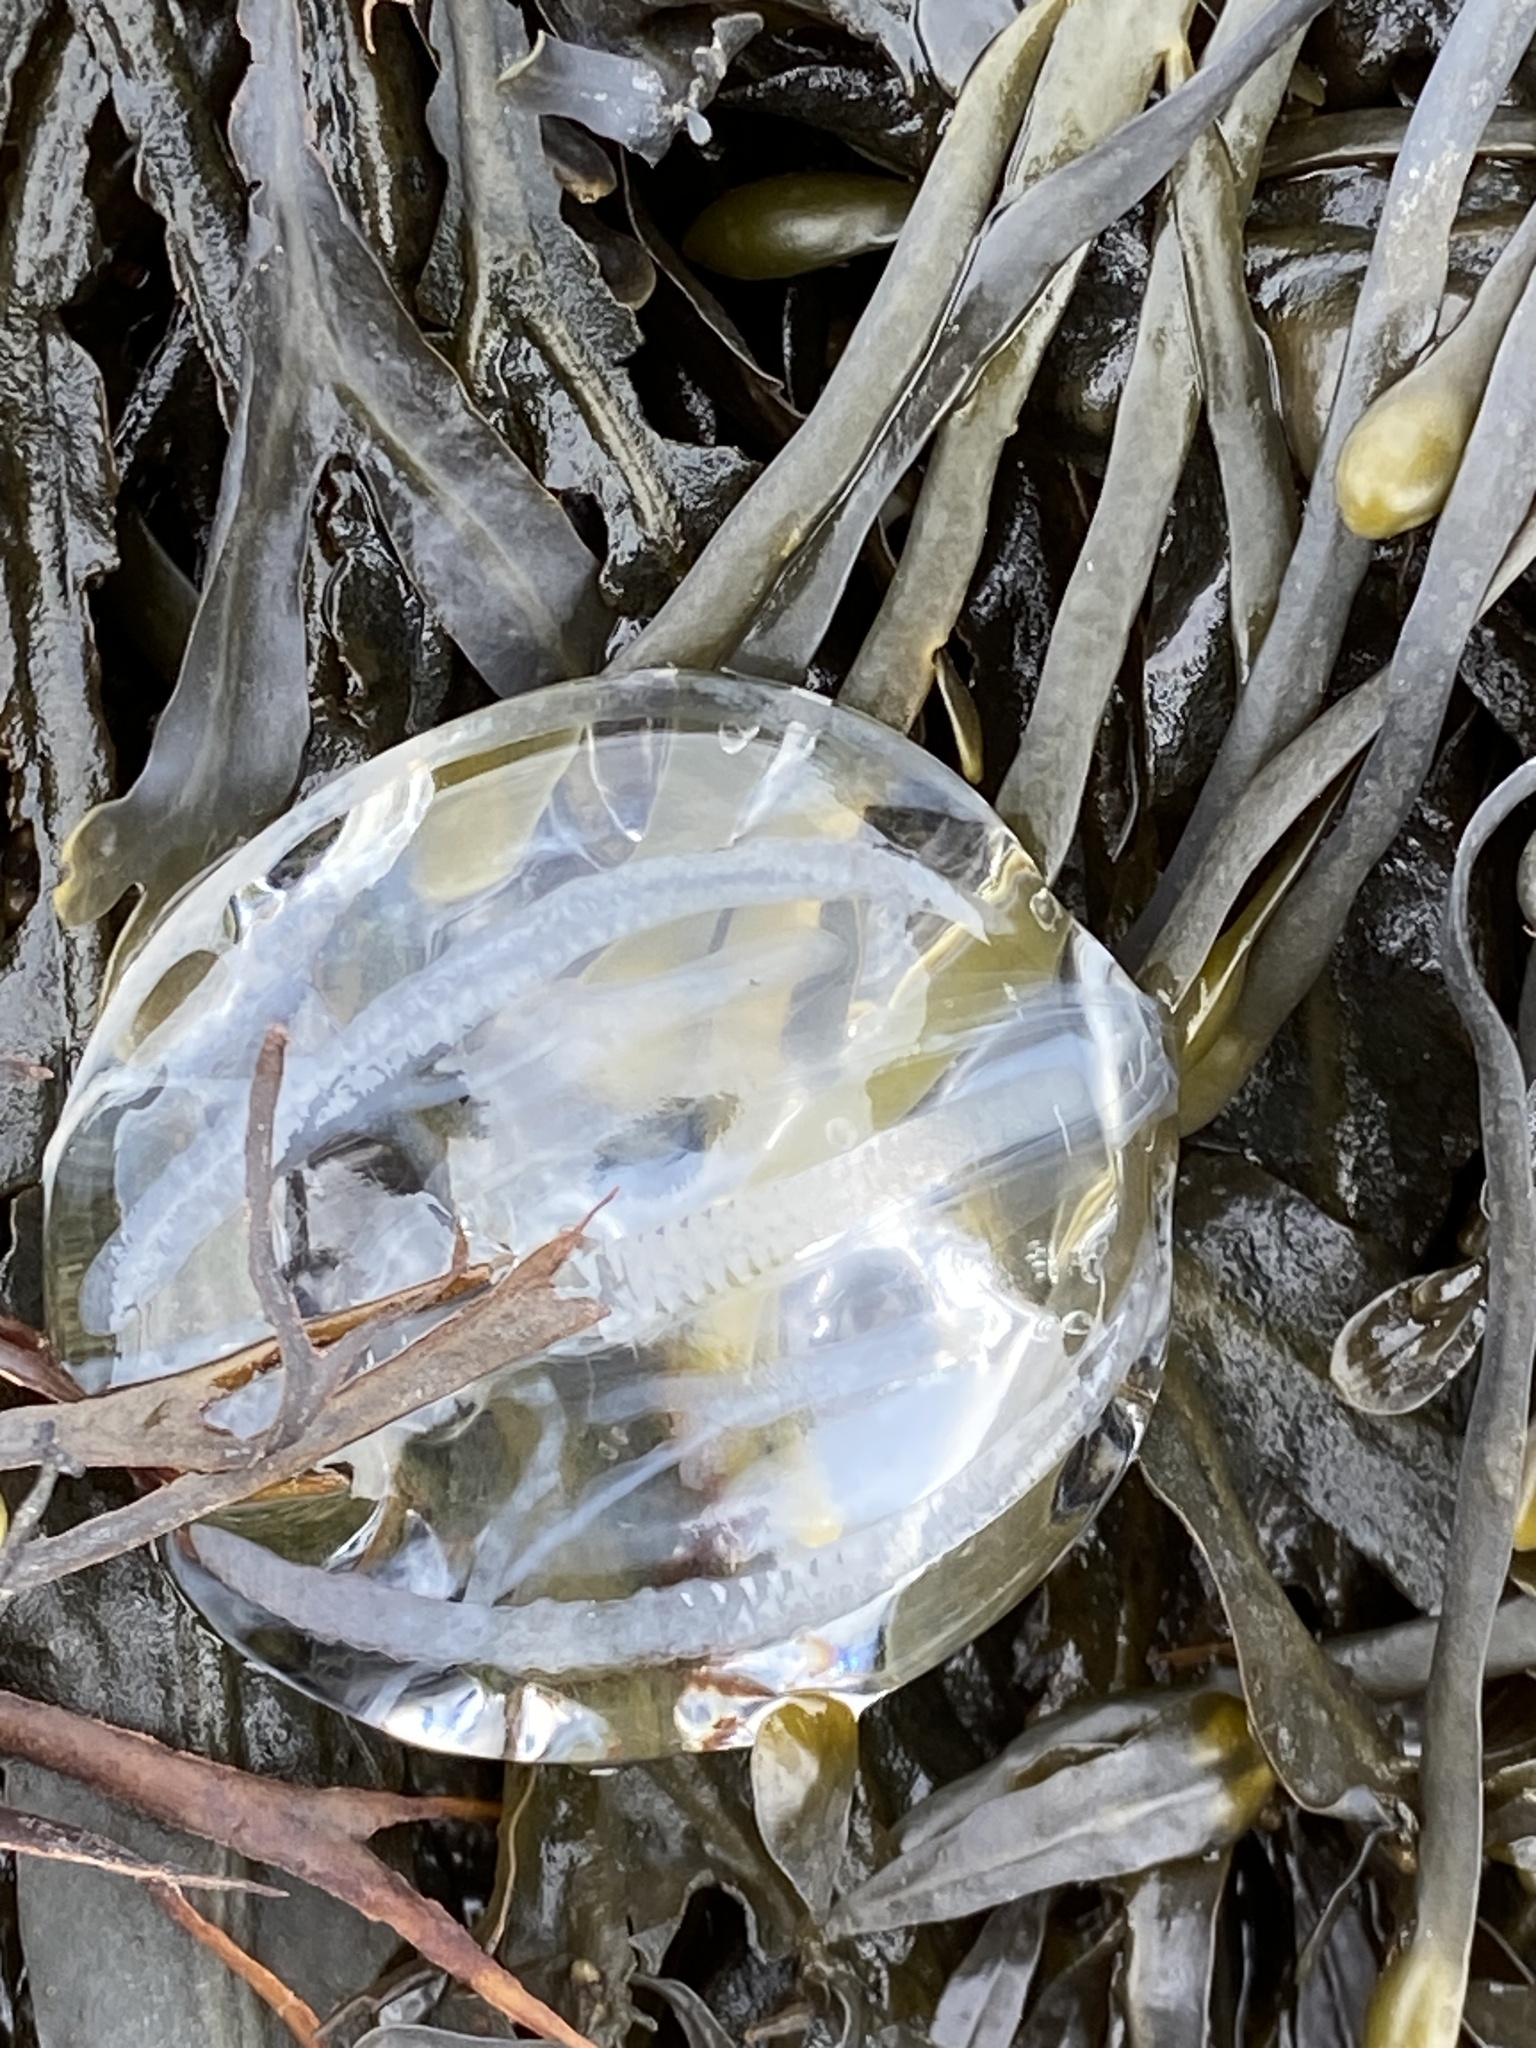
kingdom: Animalia
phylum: Ctenophora
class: Tentaculata
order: Cydippida
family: Pleurobrachiidae
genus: Pleurobrachia
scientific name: Pleurobrachia pileus
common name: Sea gooseberry
